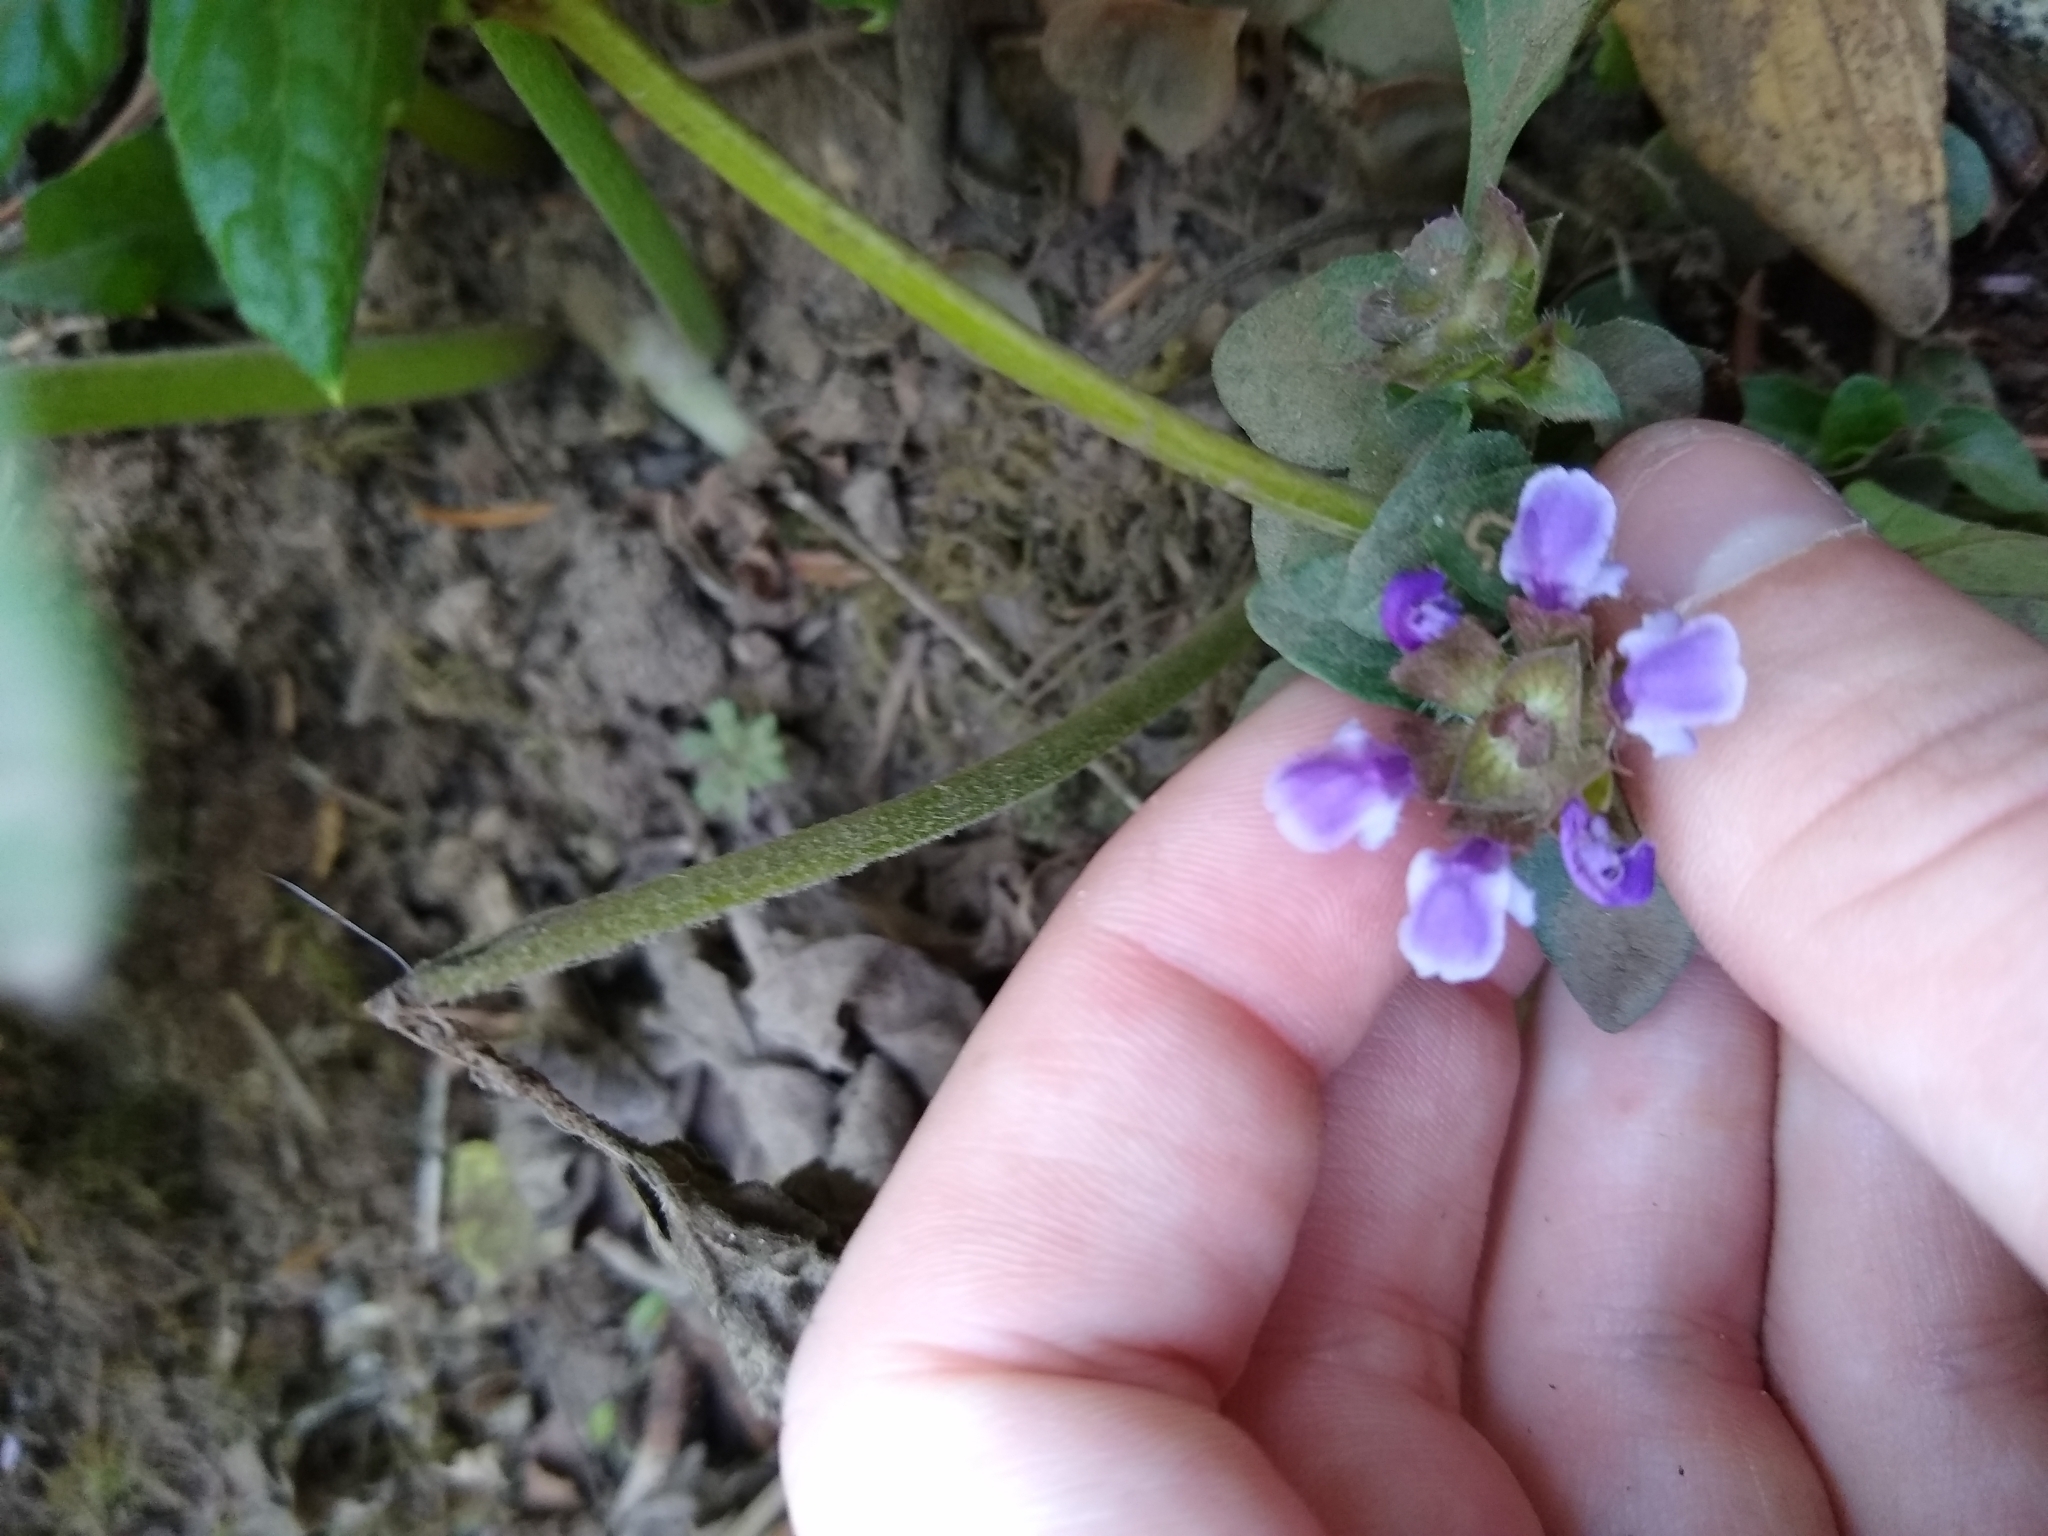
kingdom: Plantae
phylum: Tracheophyta
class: Magnoliopsida
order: Lamiales
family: Lamiaceae
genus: Prunella
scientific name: Prunella vulgaris
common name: Heal-all
